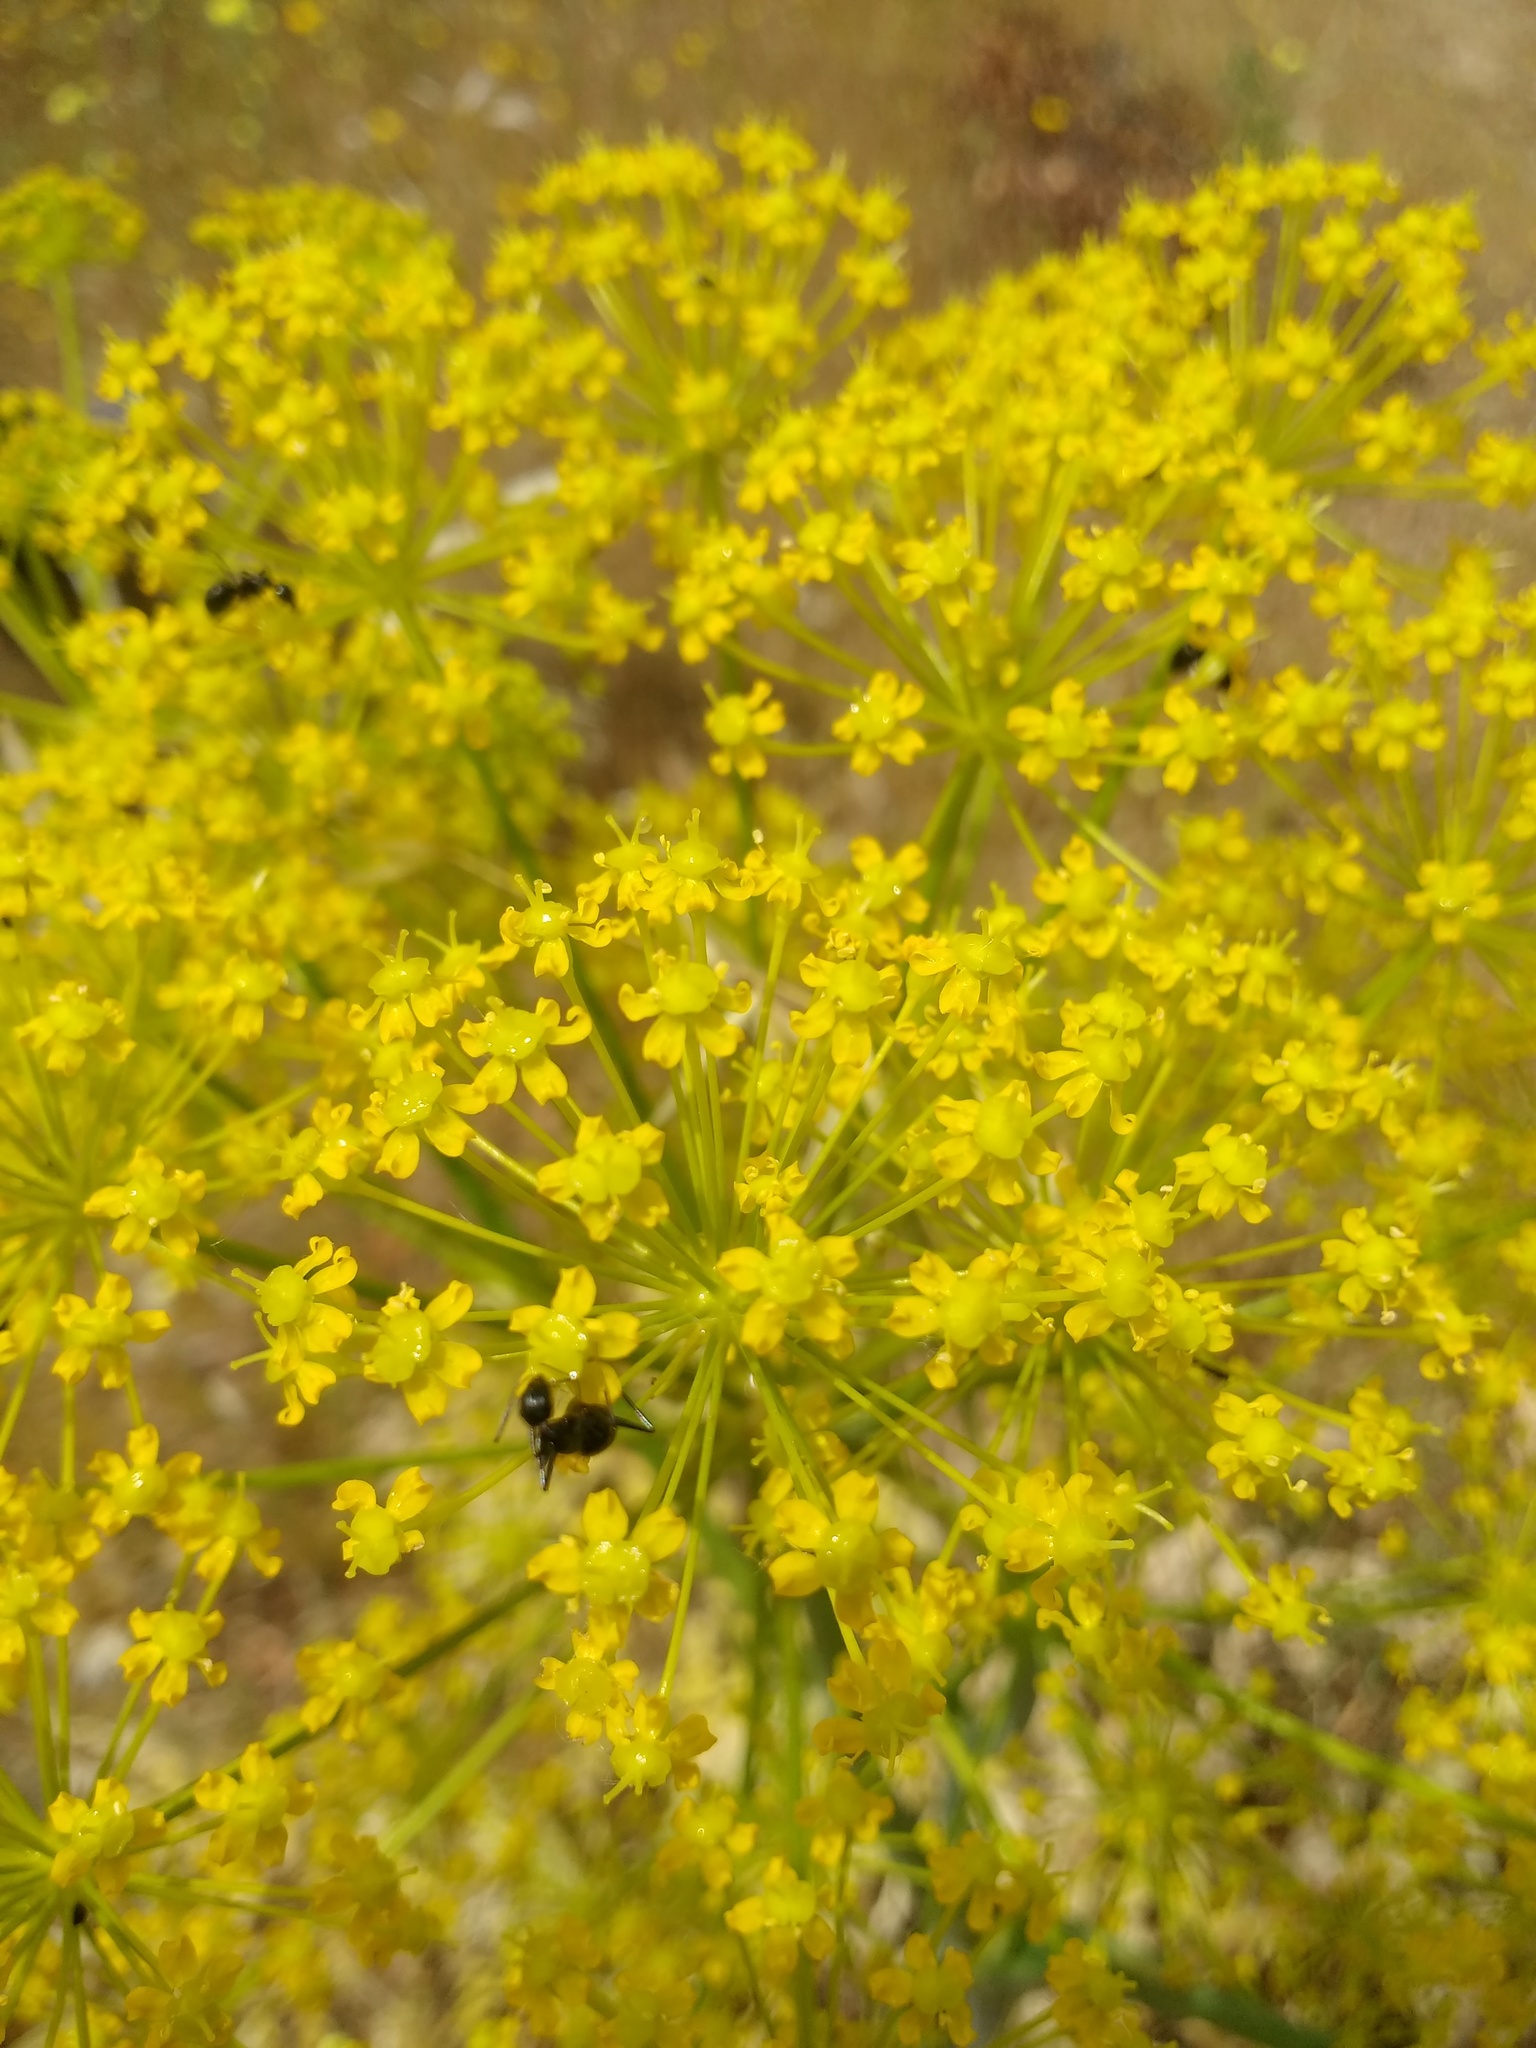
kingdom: Plantae
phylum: Tracheophyta
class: Magnoliopsida
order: Apiales
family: Apiaceae
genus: Thapsia
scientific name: Thapsia villosa
